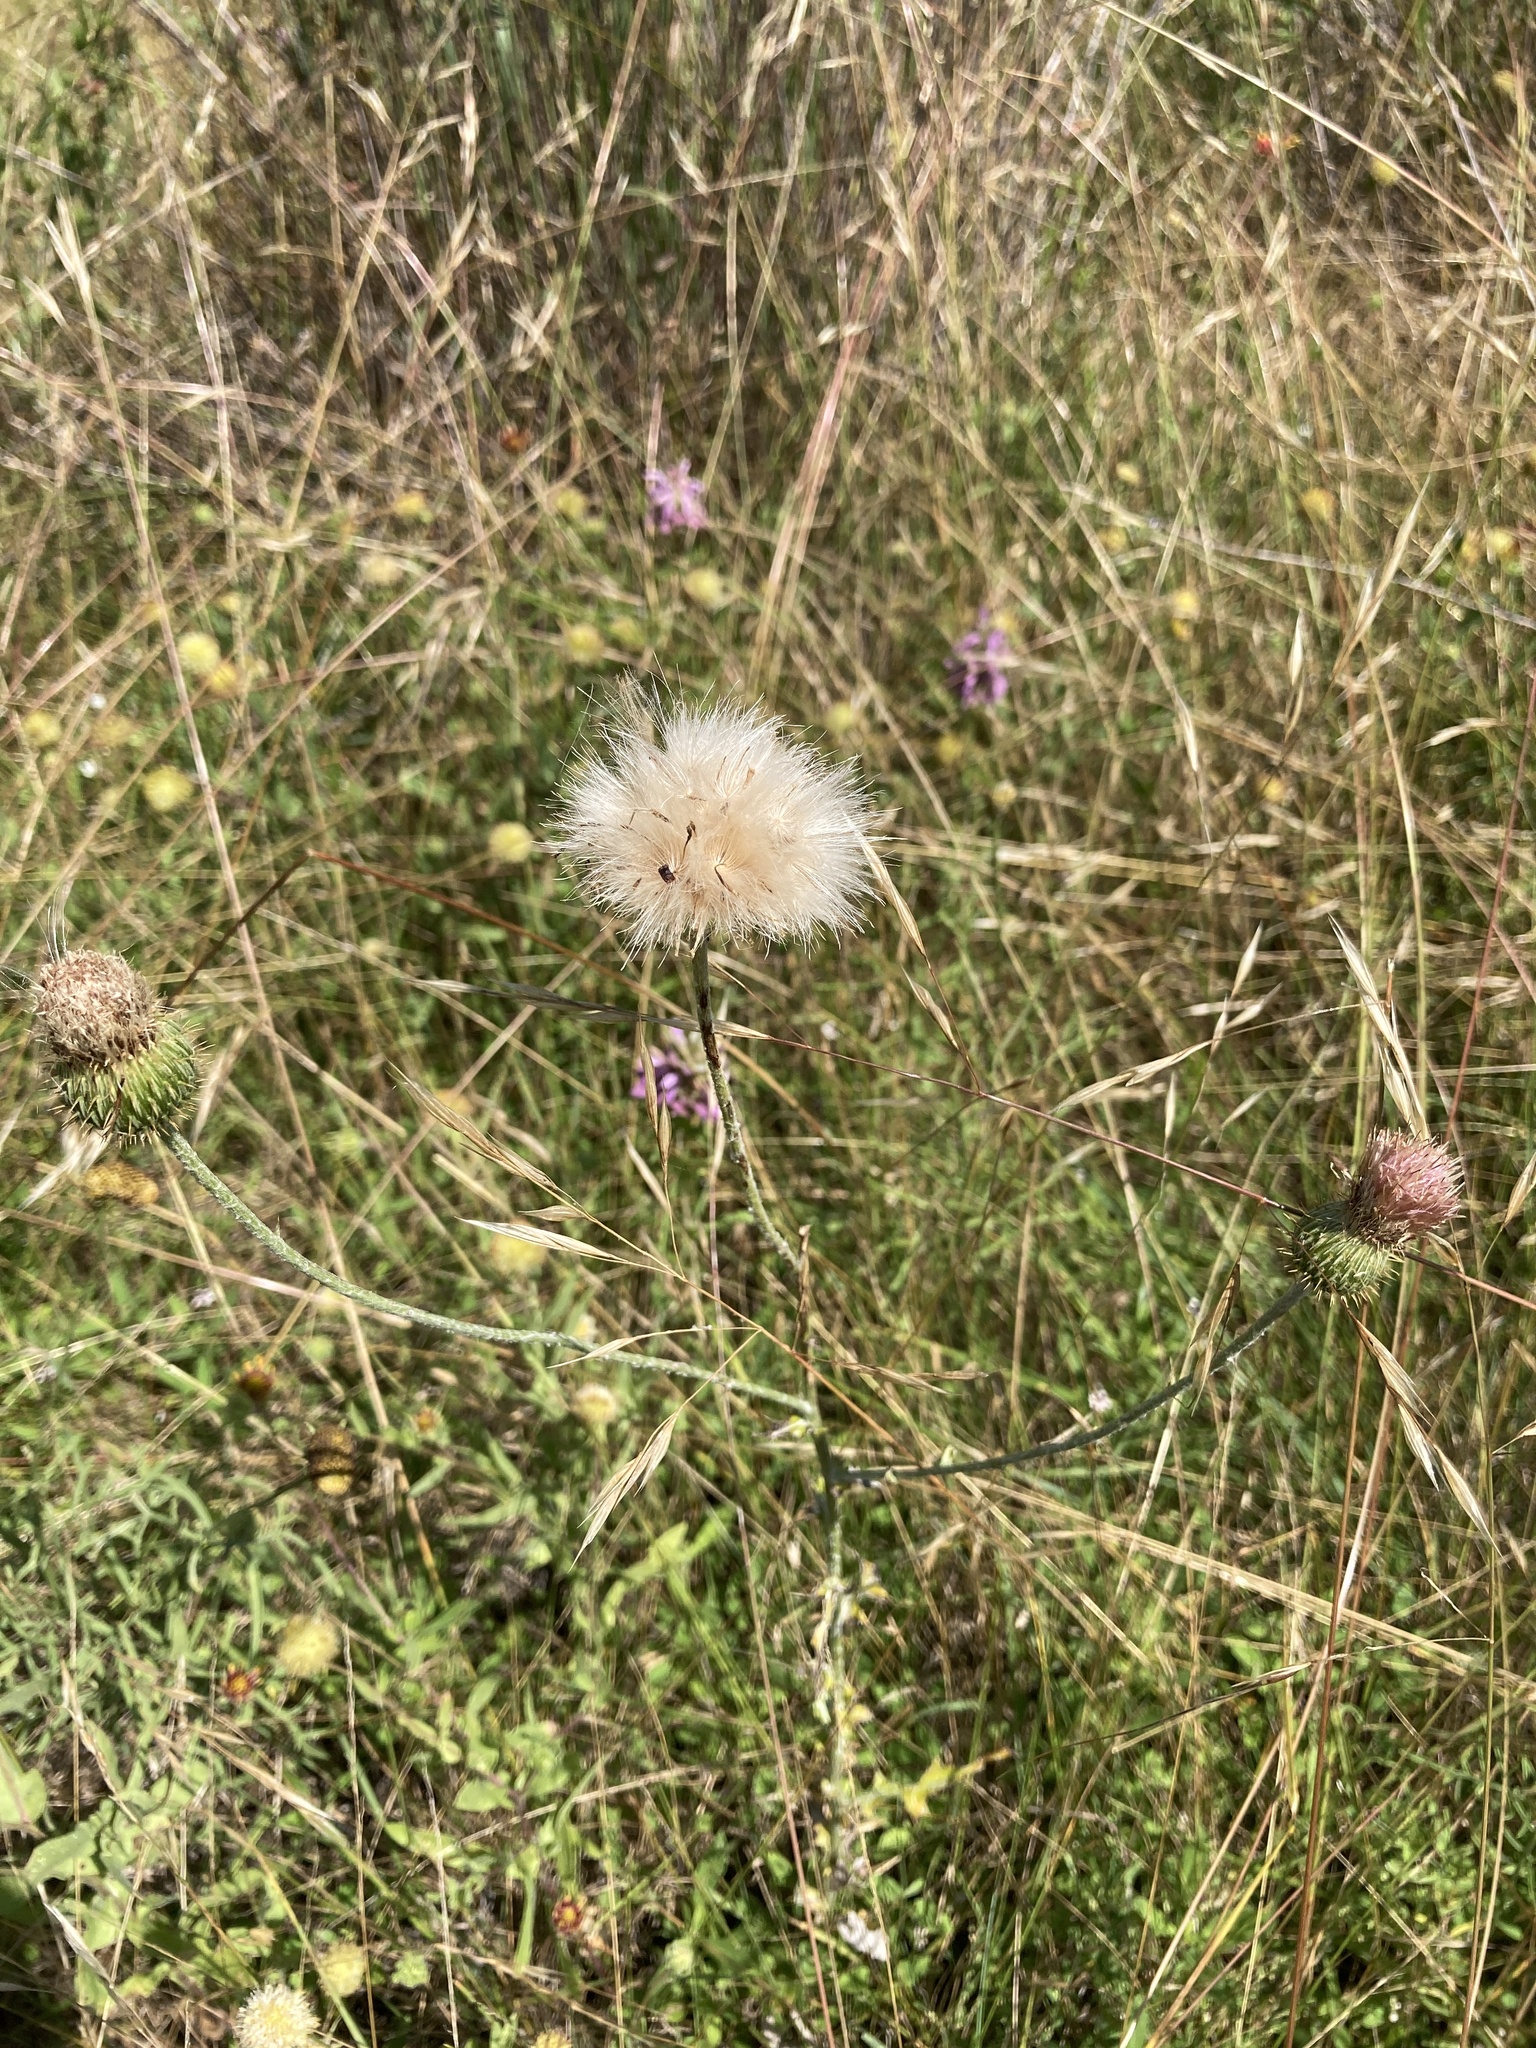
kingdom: Plantae
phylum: Tracheophyta
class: Magnoliopsida
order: Asterales
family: Asteraceae
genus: Cirsium
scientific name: Cirsium texanum
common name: Texas purple thistle
